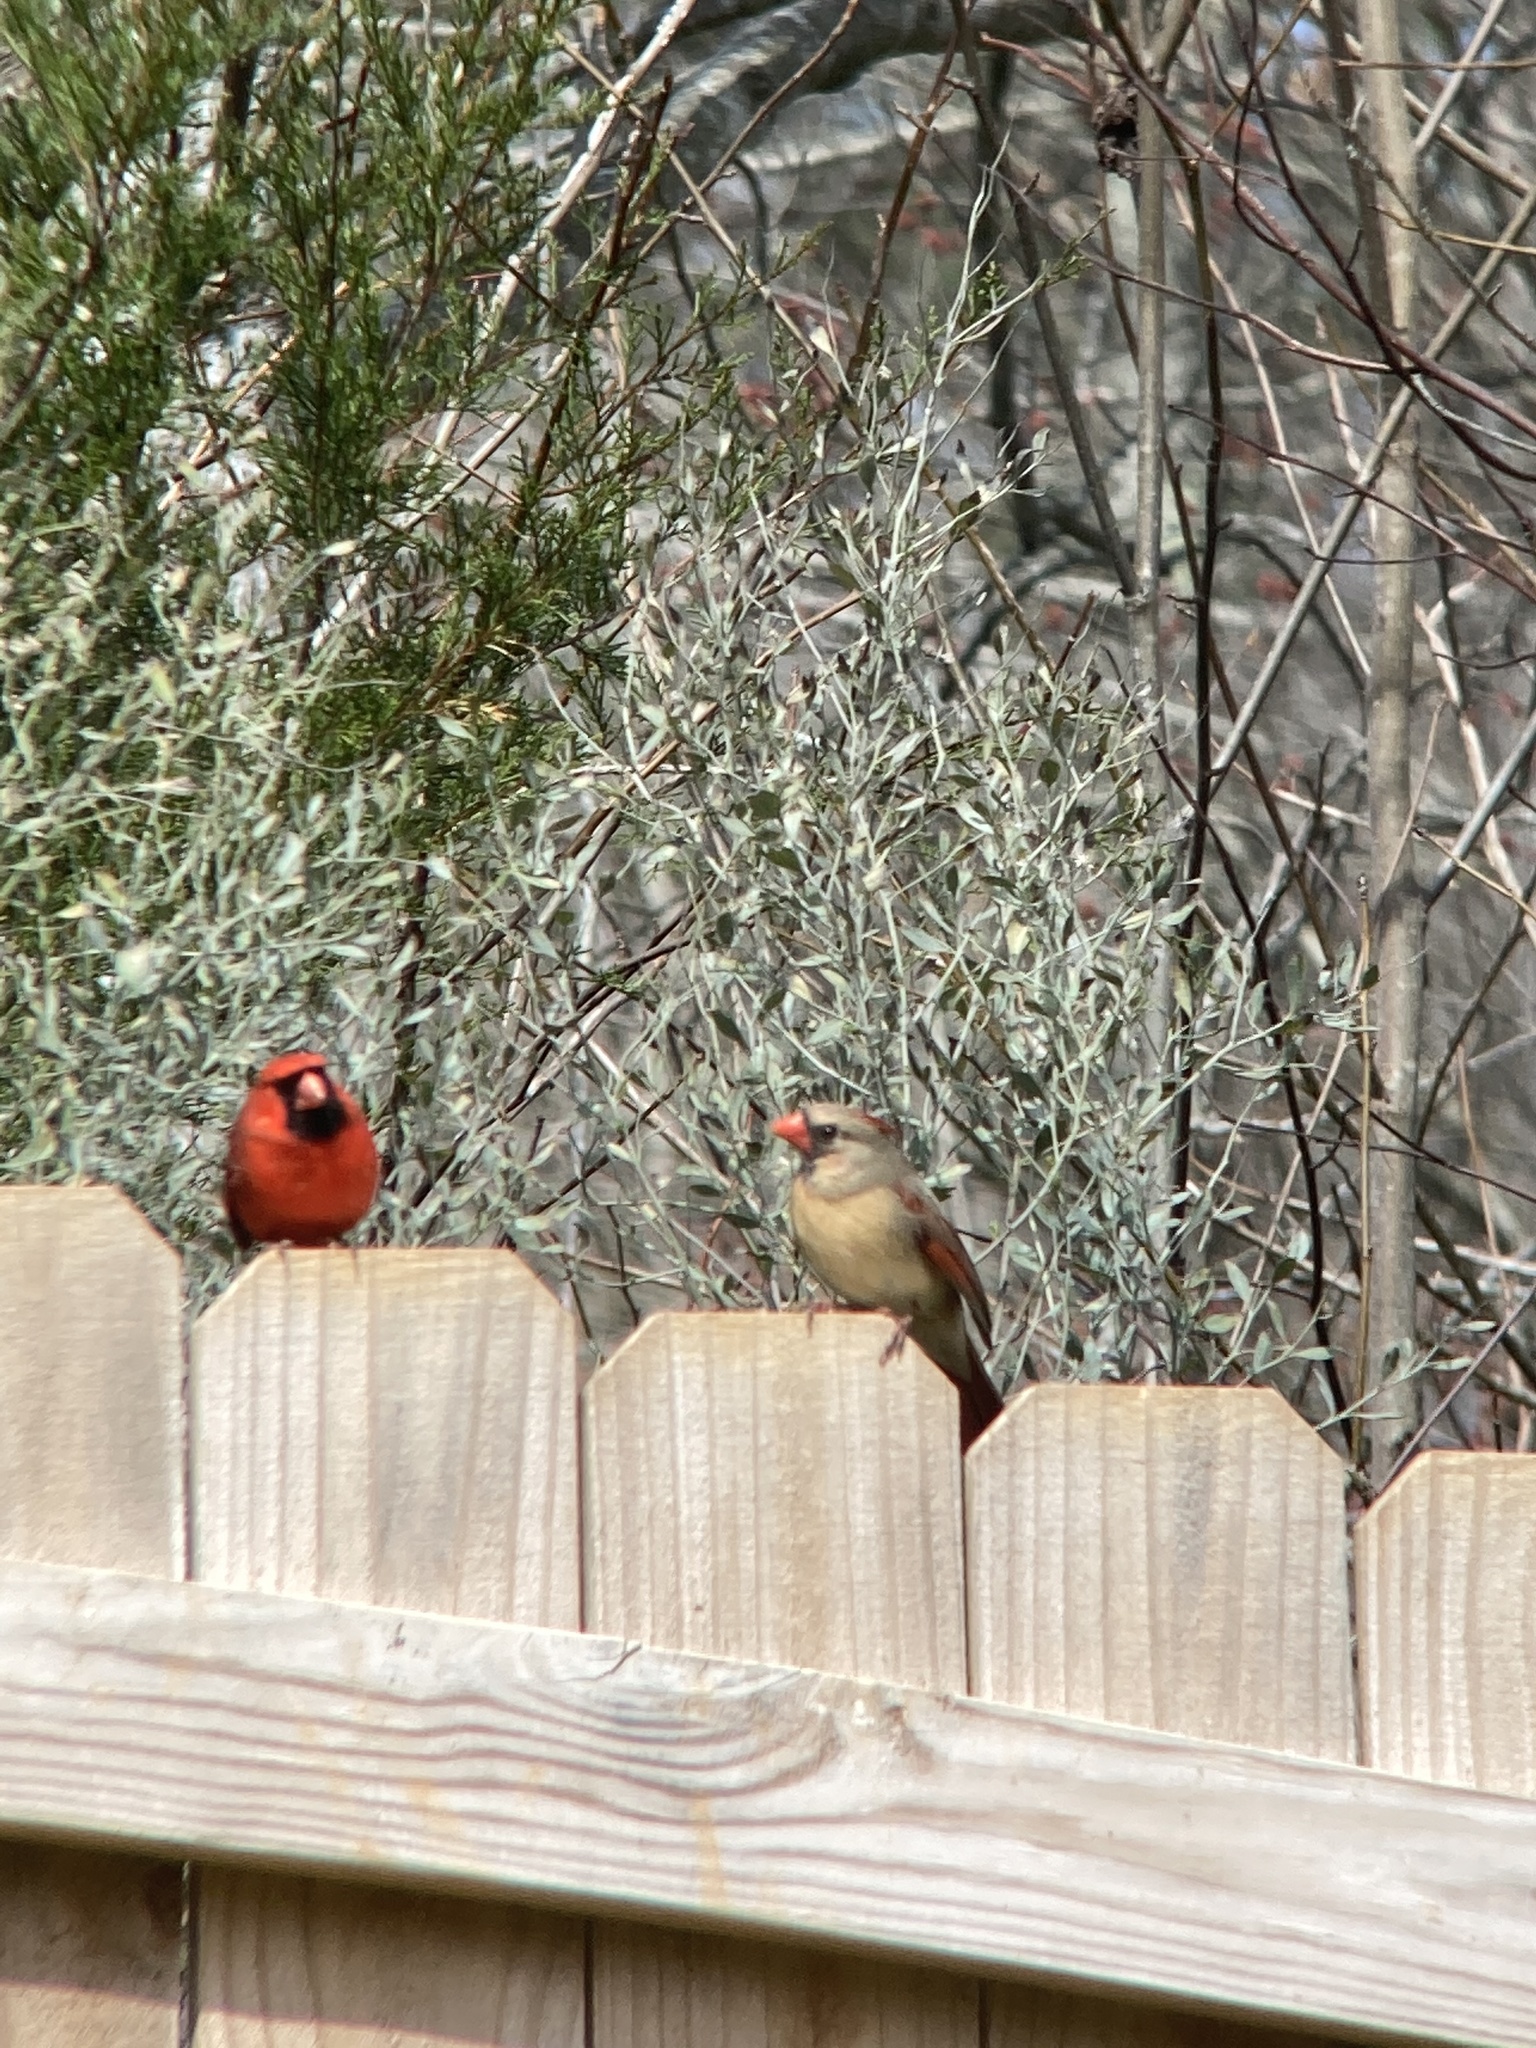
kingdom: Animalia
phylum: Chordata
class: Aves
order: Passeriformes
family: Cardinalidae
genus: Cardinalis
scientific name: Cardinalis cardinalis
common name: Northern cardinal
